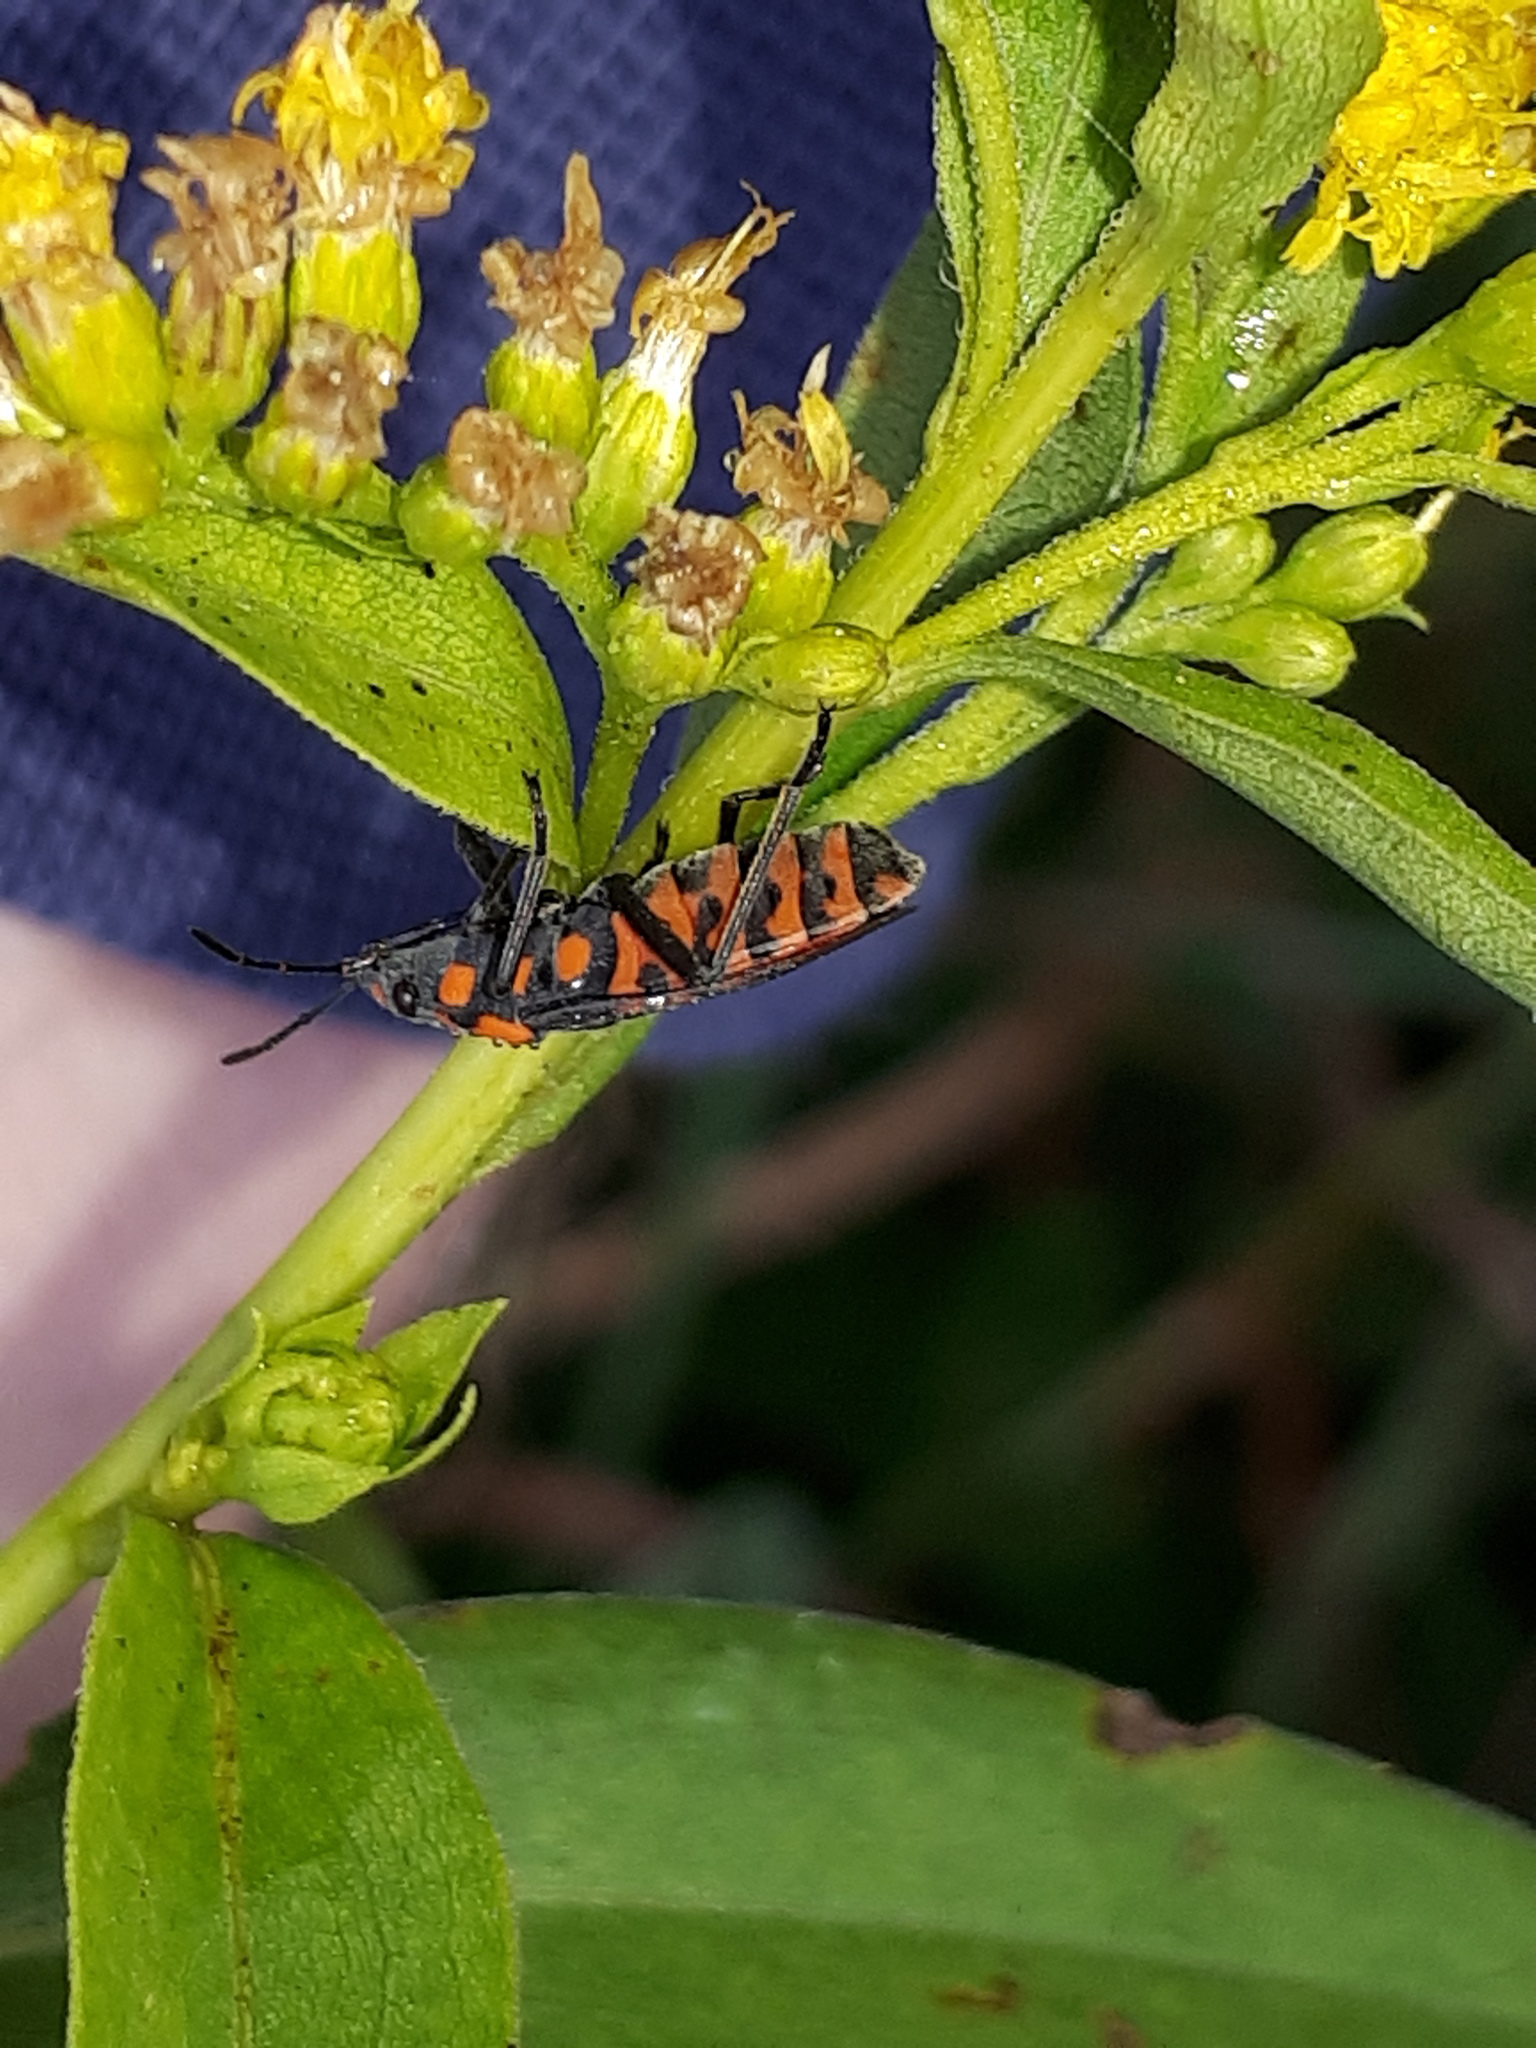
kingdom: Animalia
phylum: Arthropoda
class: Insecta
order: Hemiptera
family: Lygaeidae
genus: Spilostethus
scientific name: Spilostethus saxatilis
